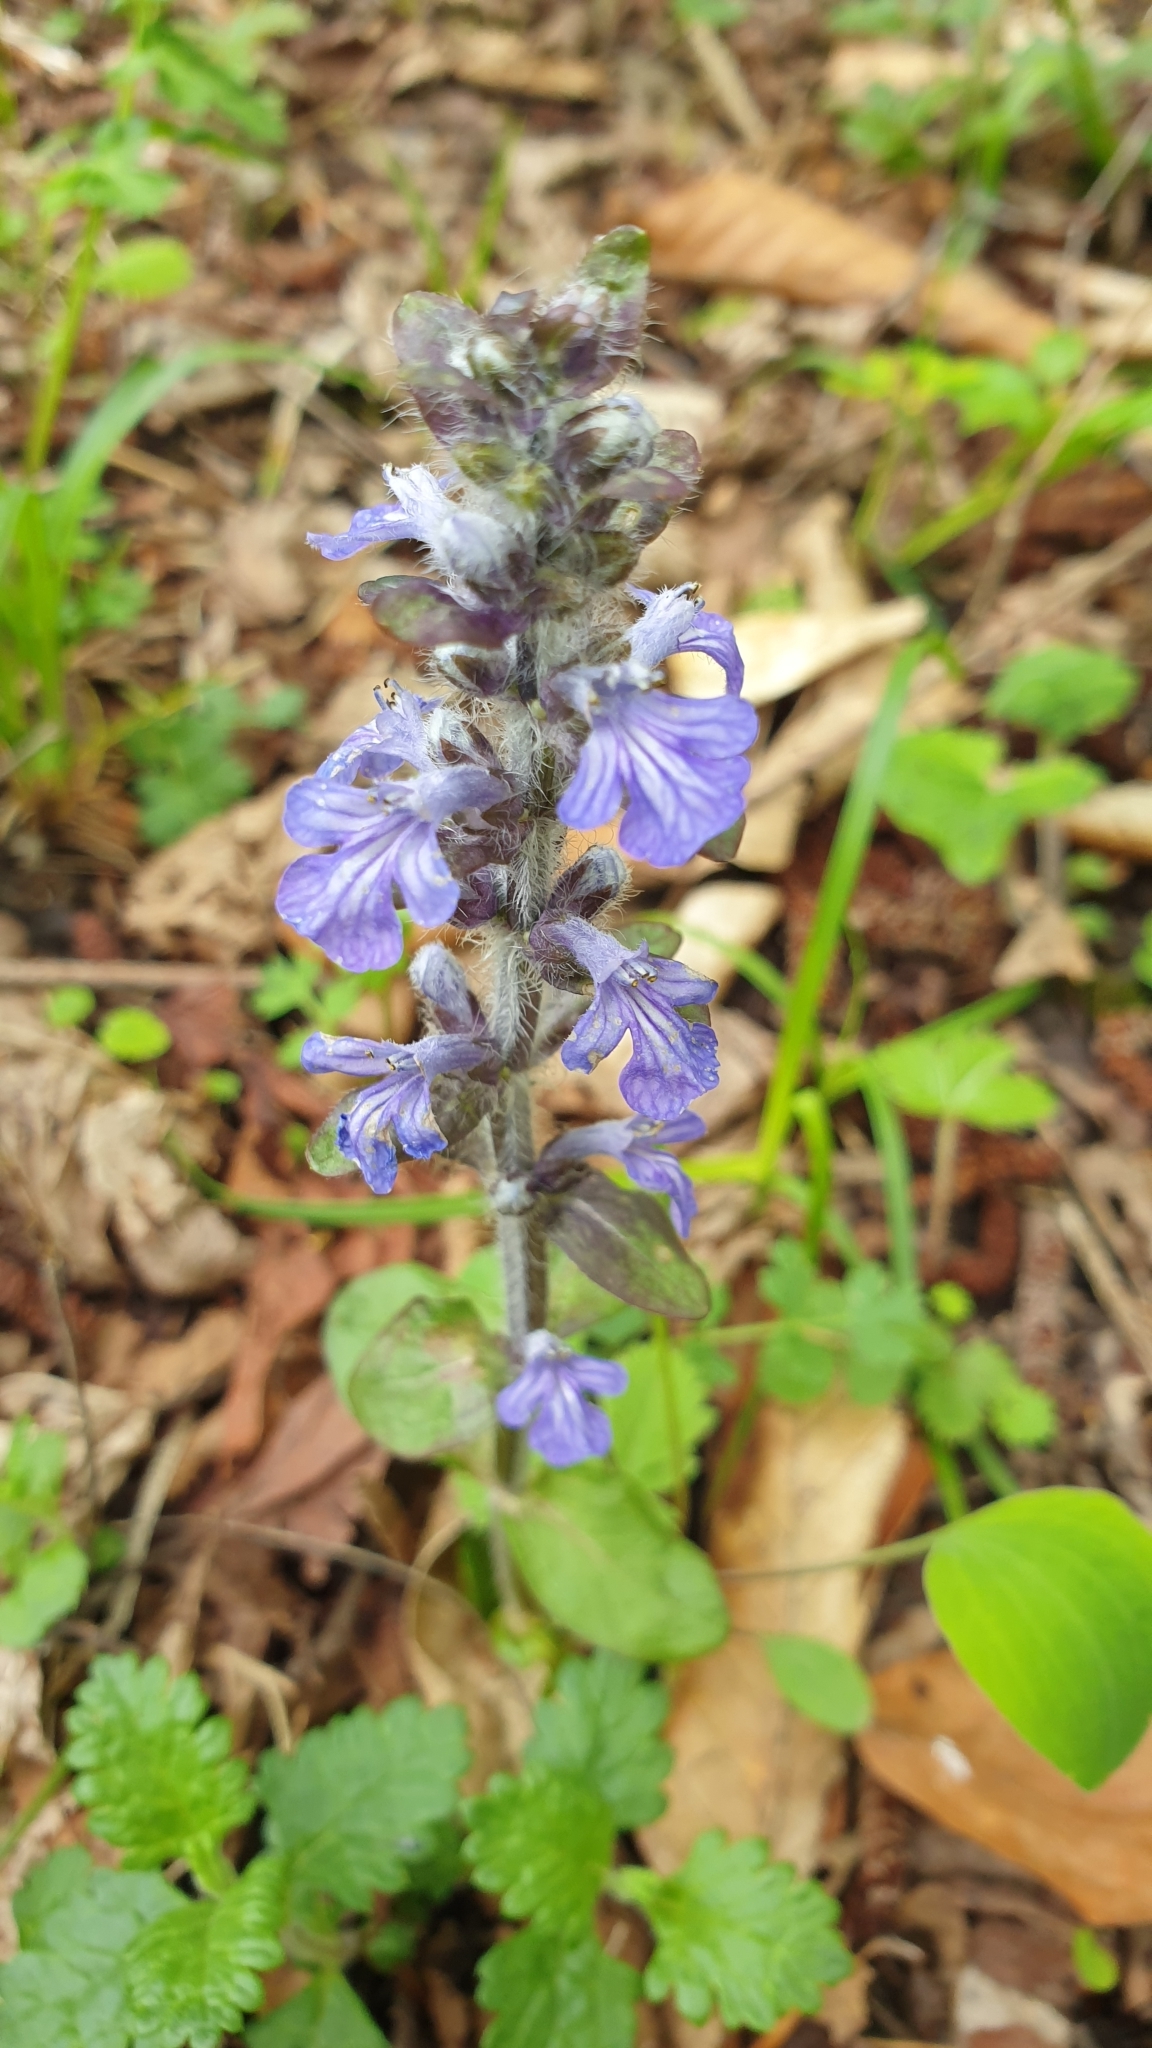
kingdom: Plantae
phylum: Tracheophyta
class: Magnoliopsida
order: Lamiales
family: Lamiaceae
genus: Ajuga
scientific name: Ajuga reptans
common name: Bugle
